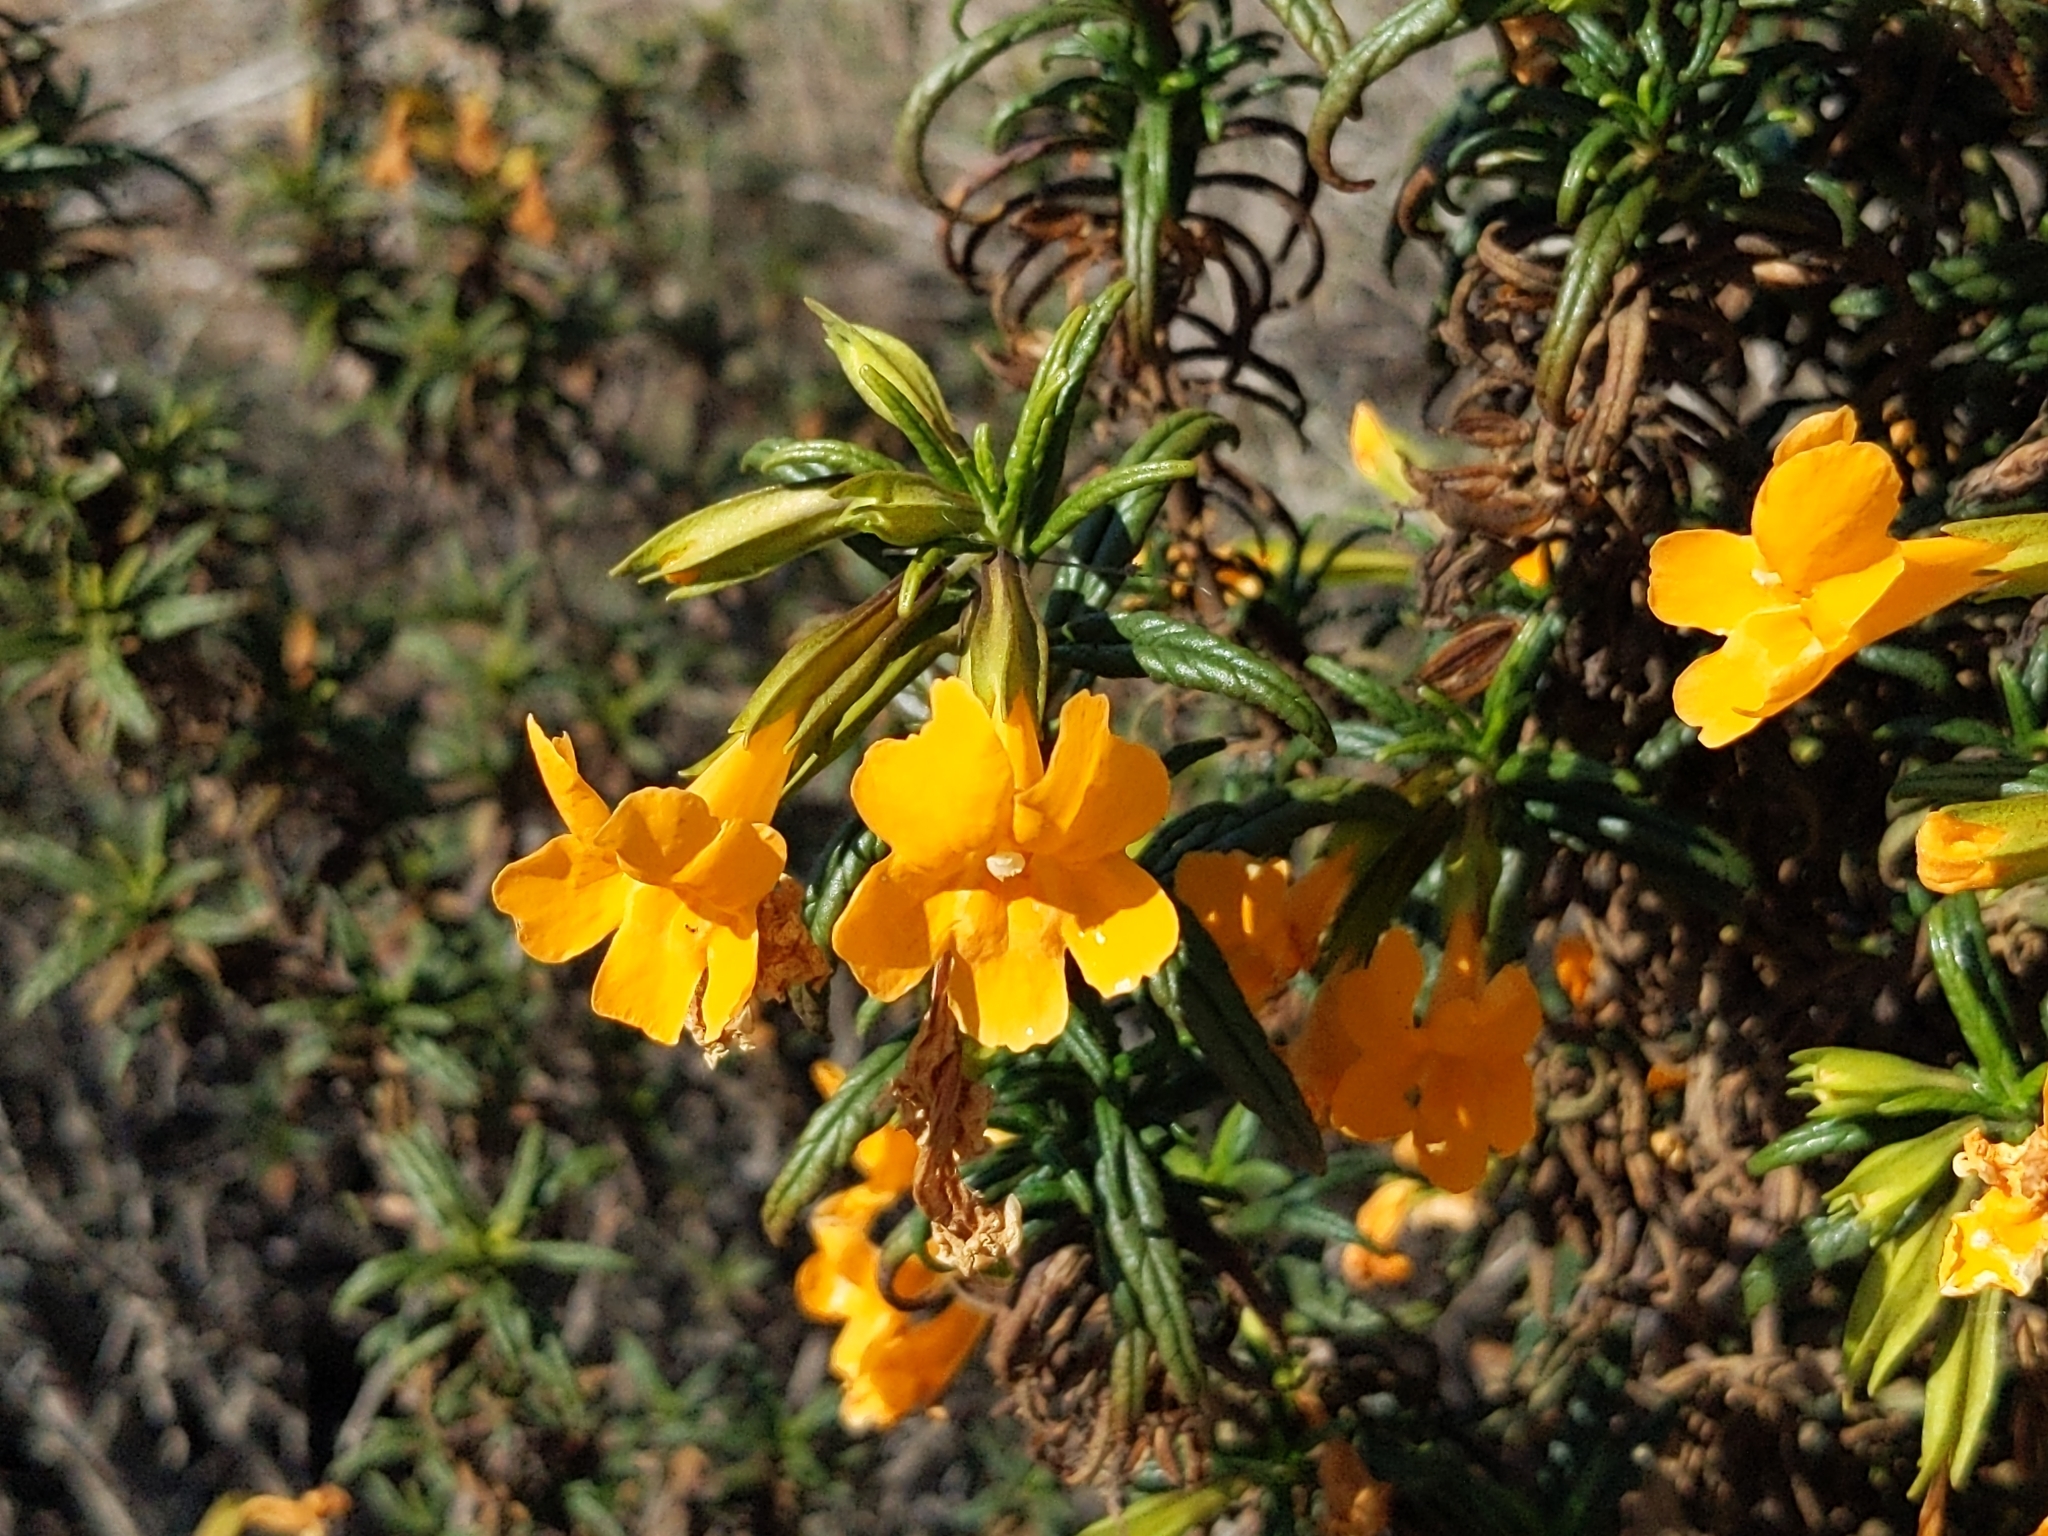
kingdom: Plantae
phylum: Tracheophyta
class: Magnoliopsida
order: Lamiales
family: Phrymaceae
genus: Diplacus
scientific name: Diplacus aurantiacus
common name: Bush monkey-flower
